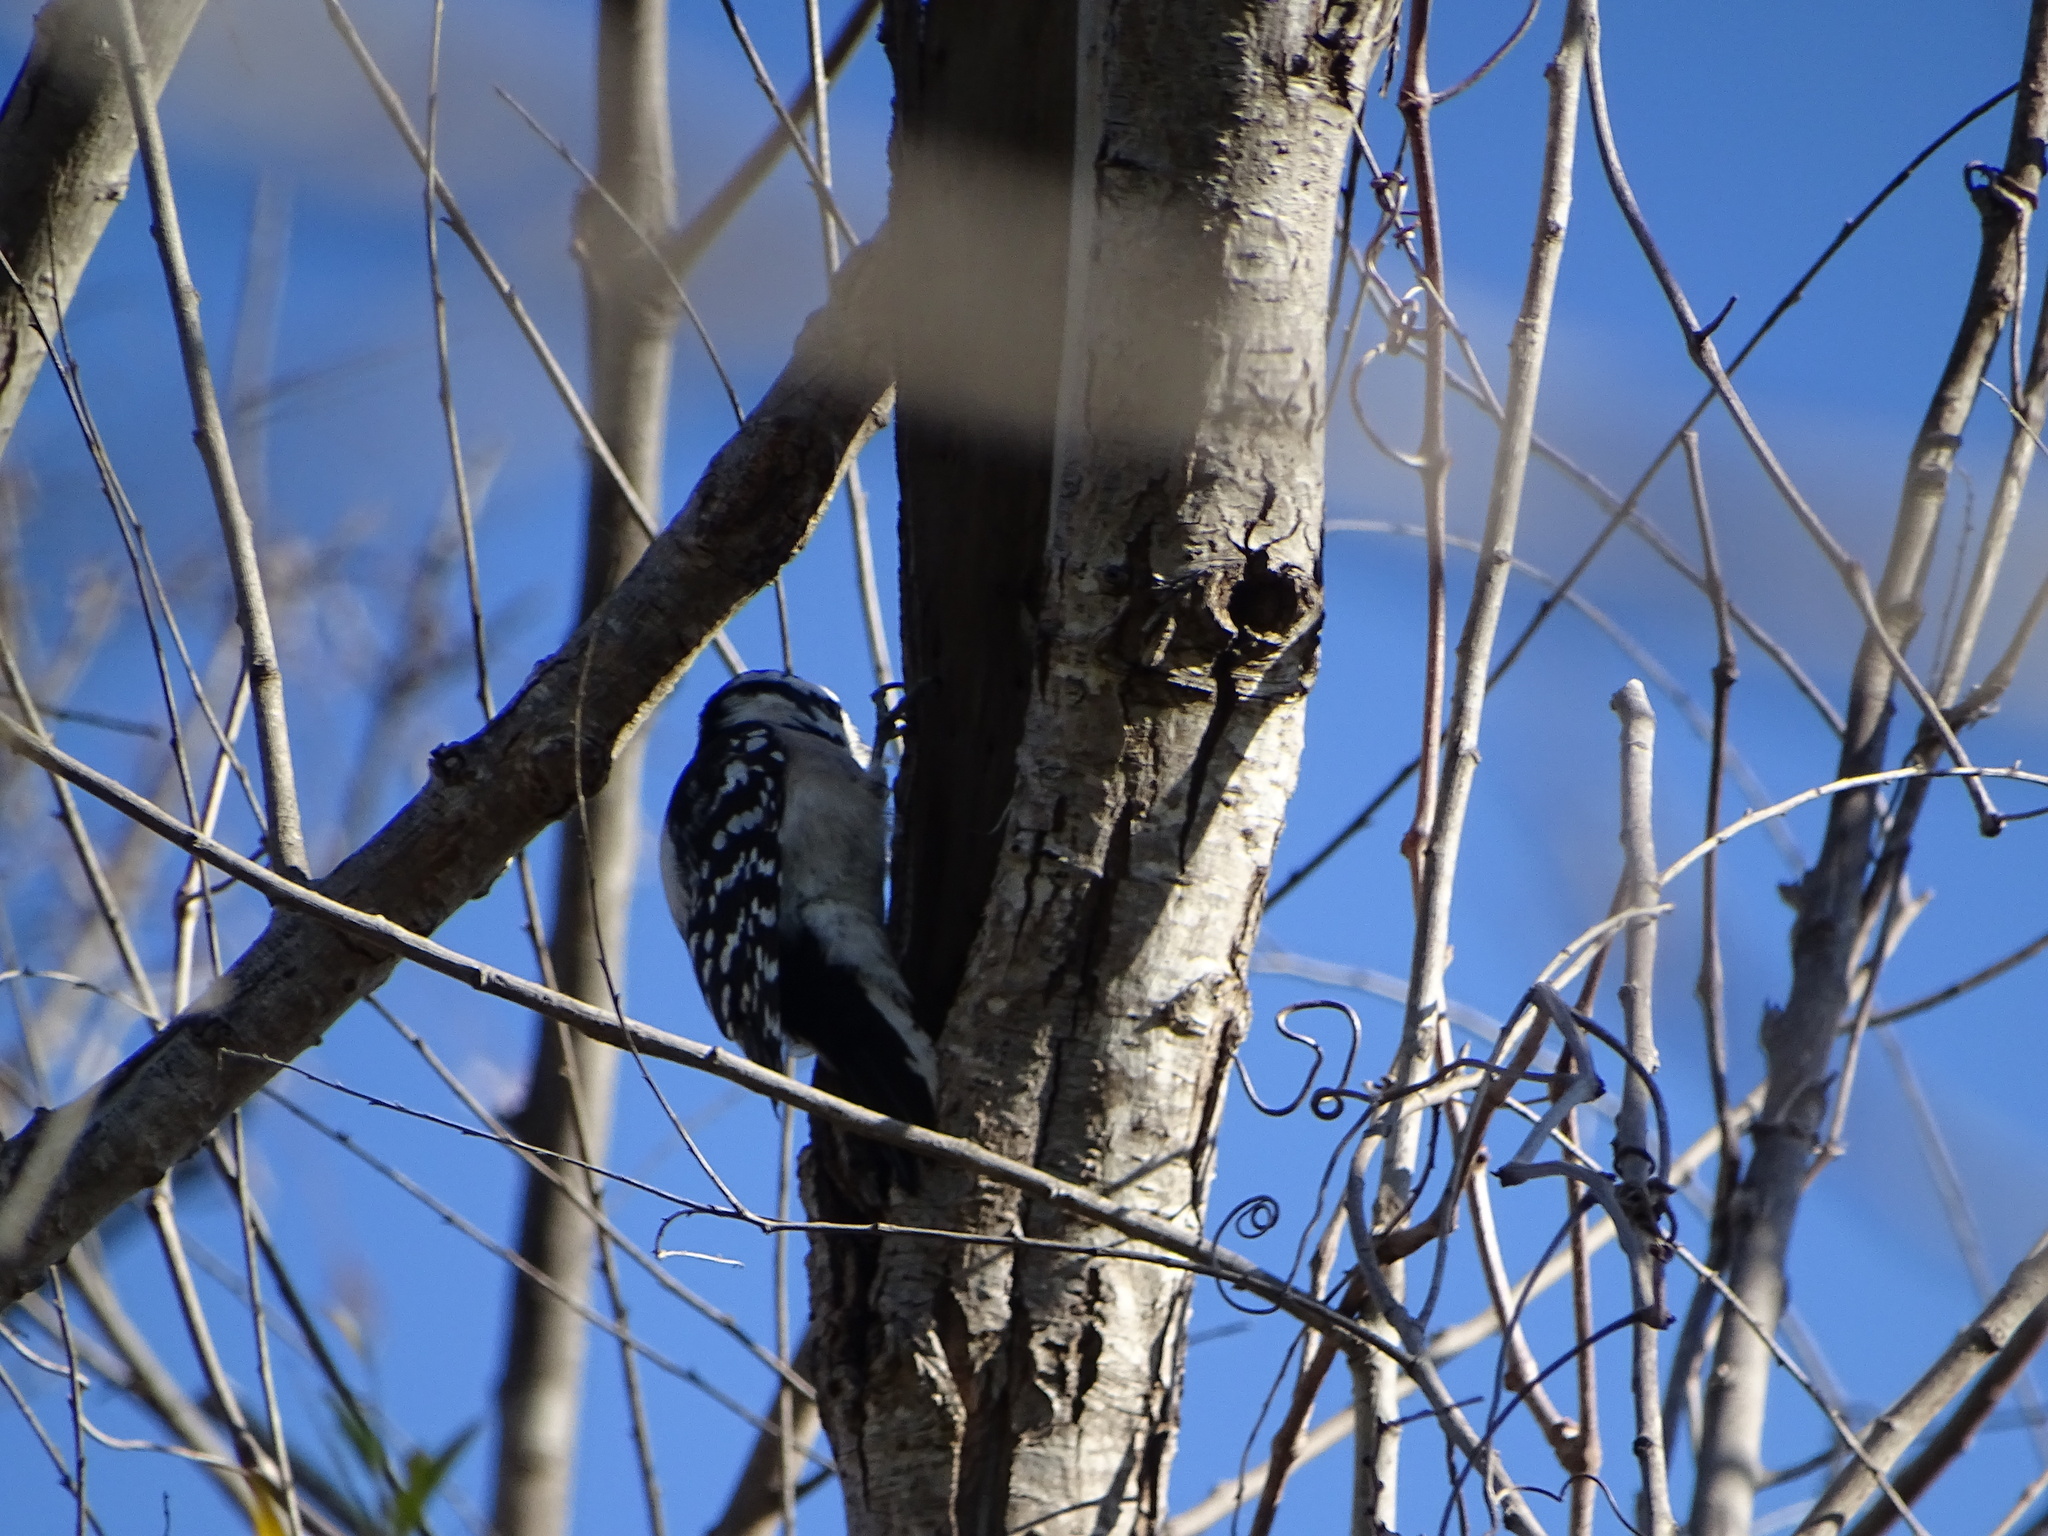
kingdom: Animalia
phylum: Chordata
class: Aves
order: Piciformes
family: Picidae
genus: Dryobates
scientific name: Dryobates pubescens
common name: Downy woodpecker
